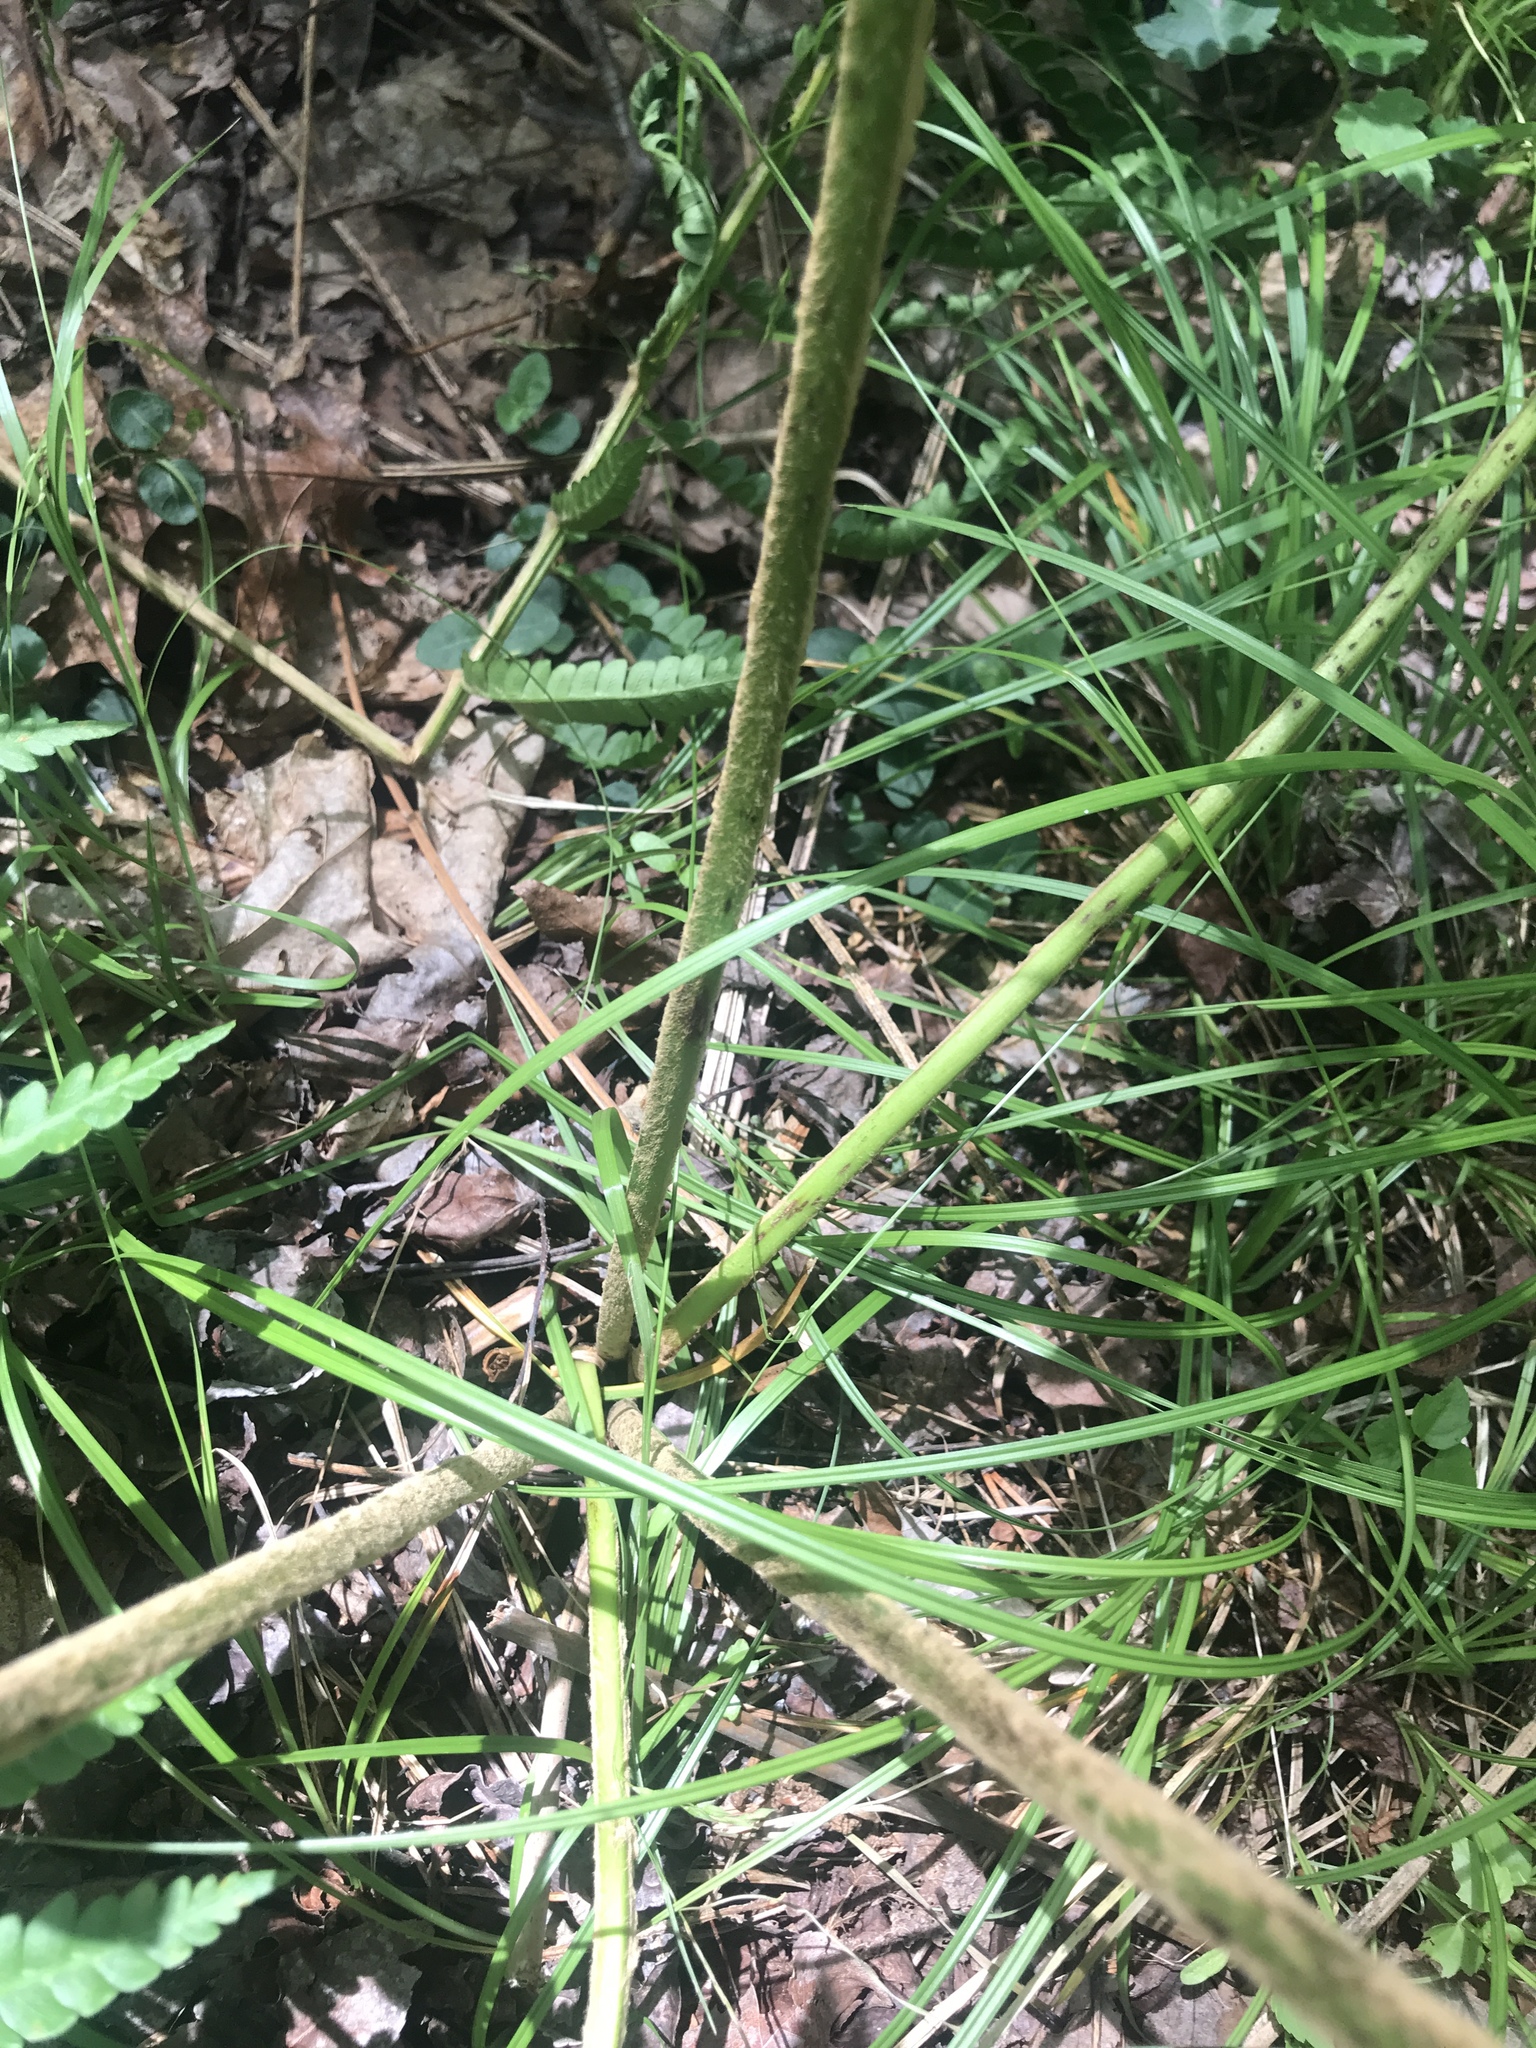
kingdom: Plantae
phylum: Tracheophyta
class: Polypodiopsida
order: Osmundales
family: Osmundaceae
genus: Osmundastrum
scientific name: Osmundastrum cinnamomeum
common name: Cinnamon fern
